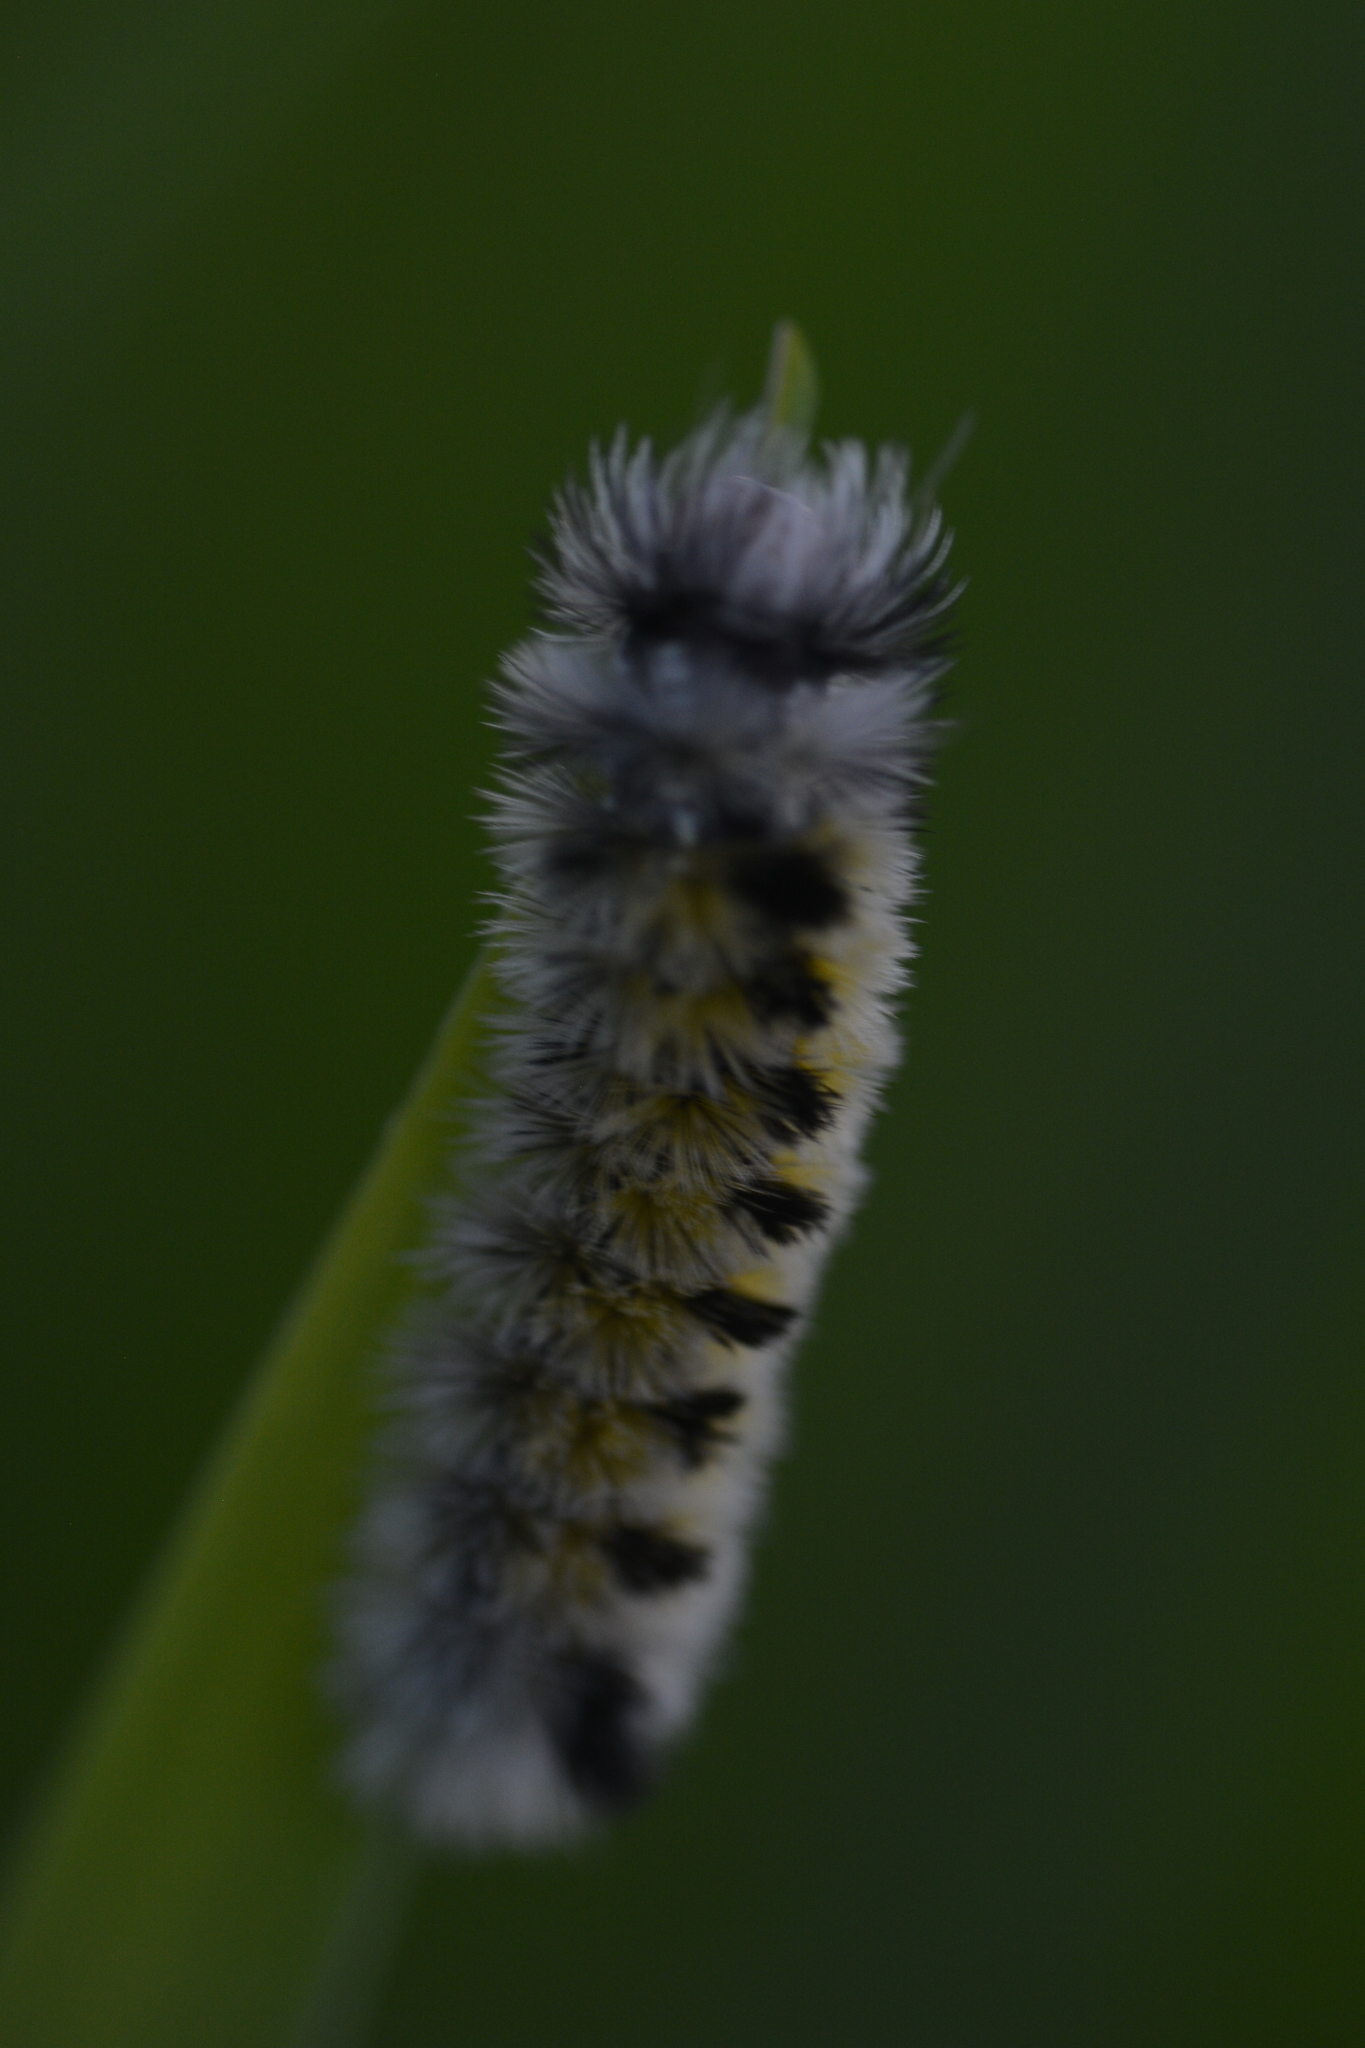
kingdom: Animalia
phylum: Arthropoda
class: Insecta
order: Lepidoptera
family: Erebidae
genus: Ctenucha
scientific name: Ctenucha virginica
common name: Virginia ctenucha moth
